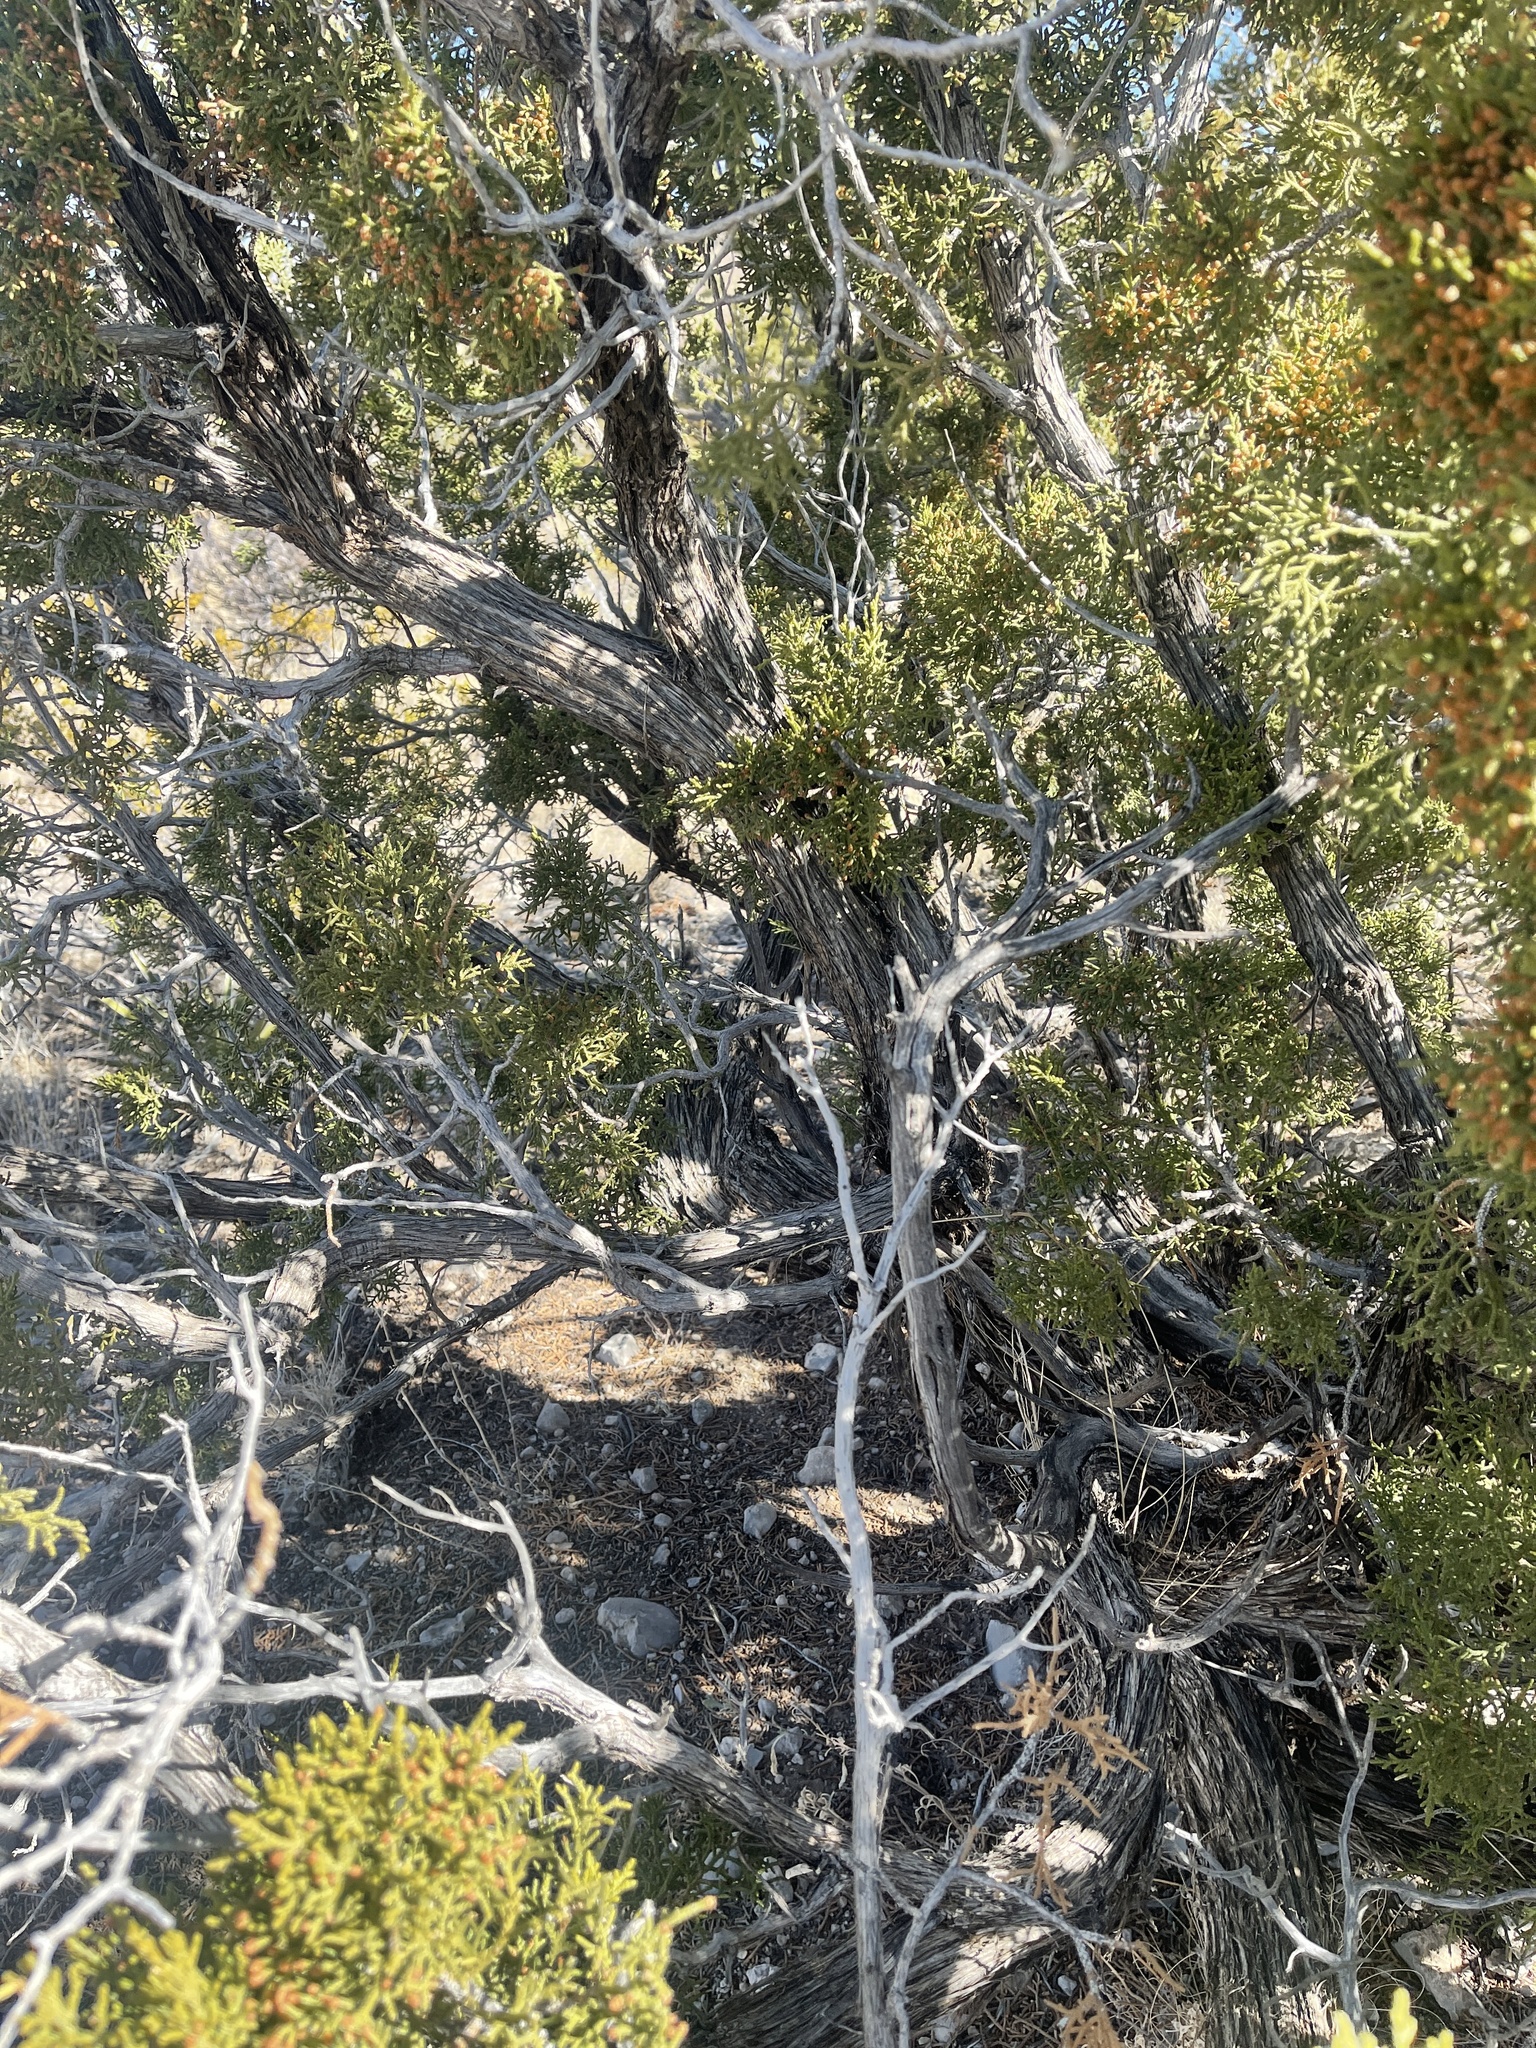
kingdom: Plantae
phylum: Tracheophyta
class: Pinopsida
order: Pinales
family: Cupressaceae
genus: Juniperus
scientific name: Juniperus monosperma
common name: One-seed juniper
